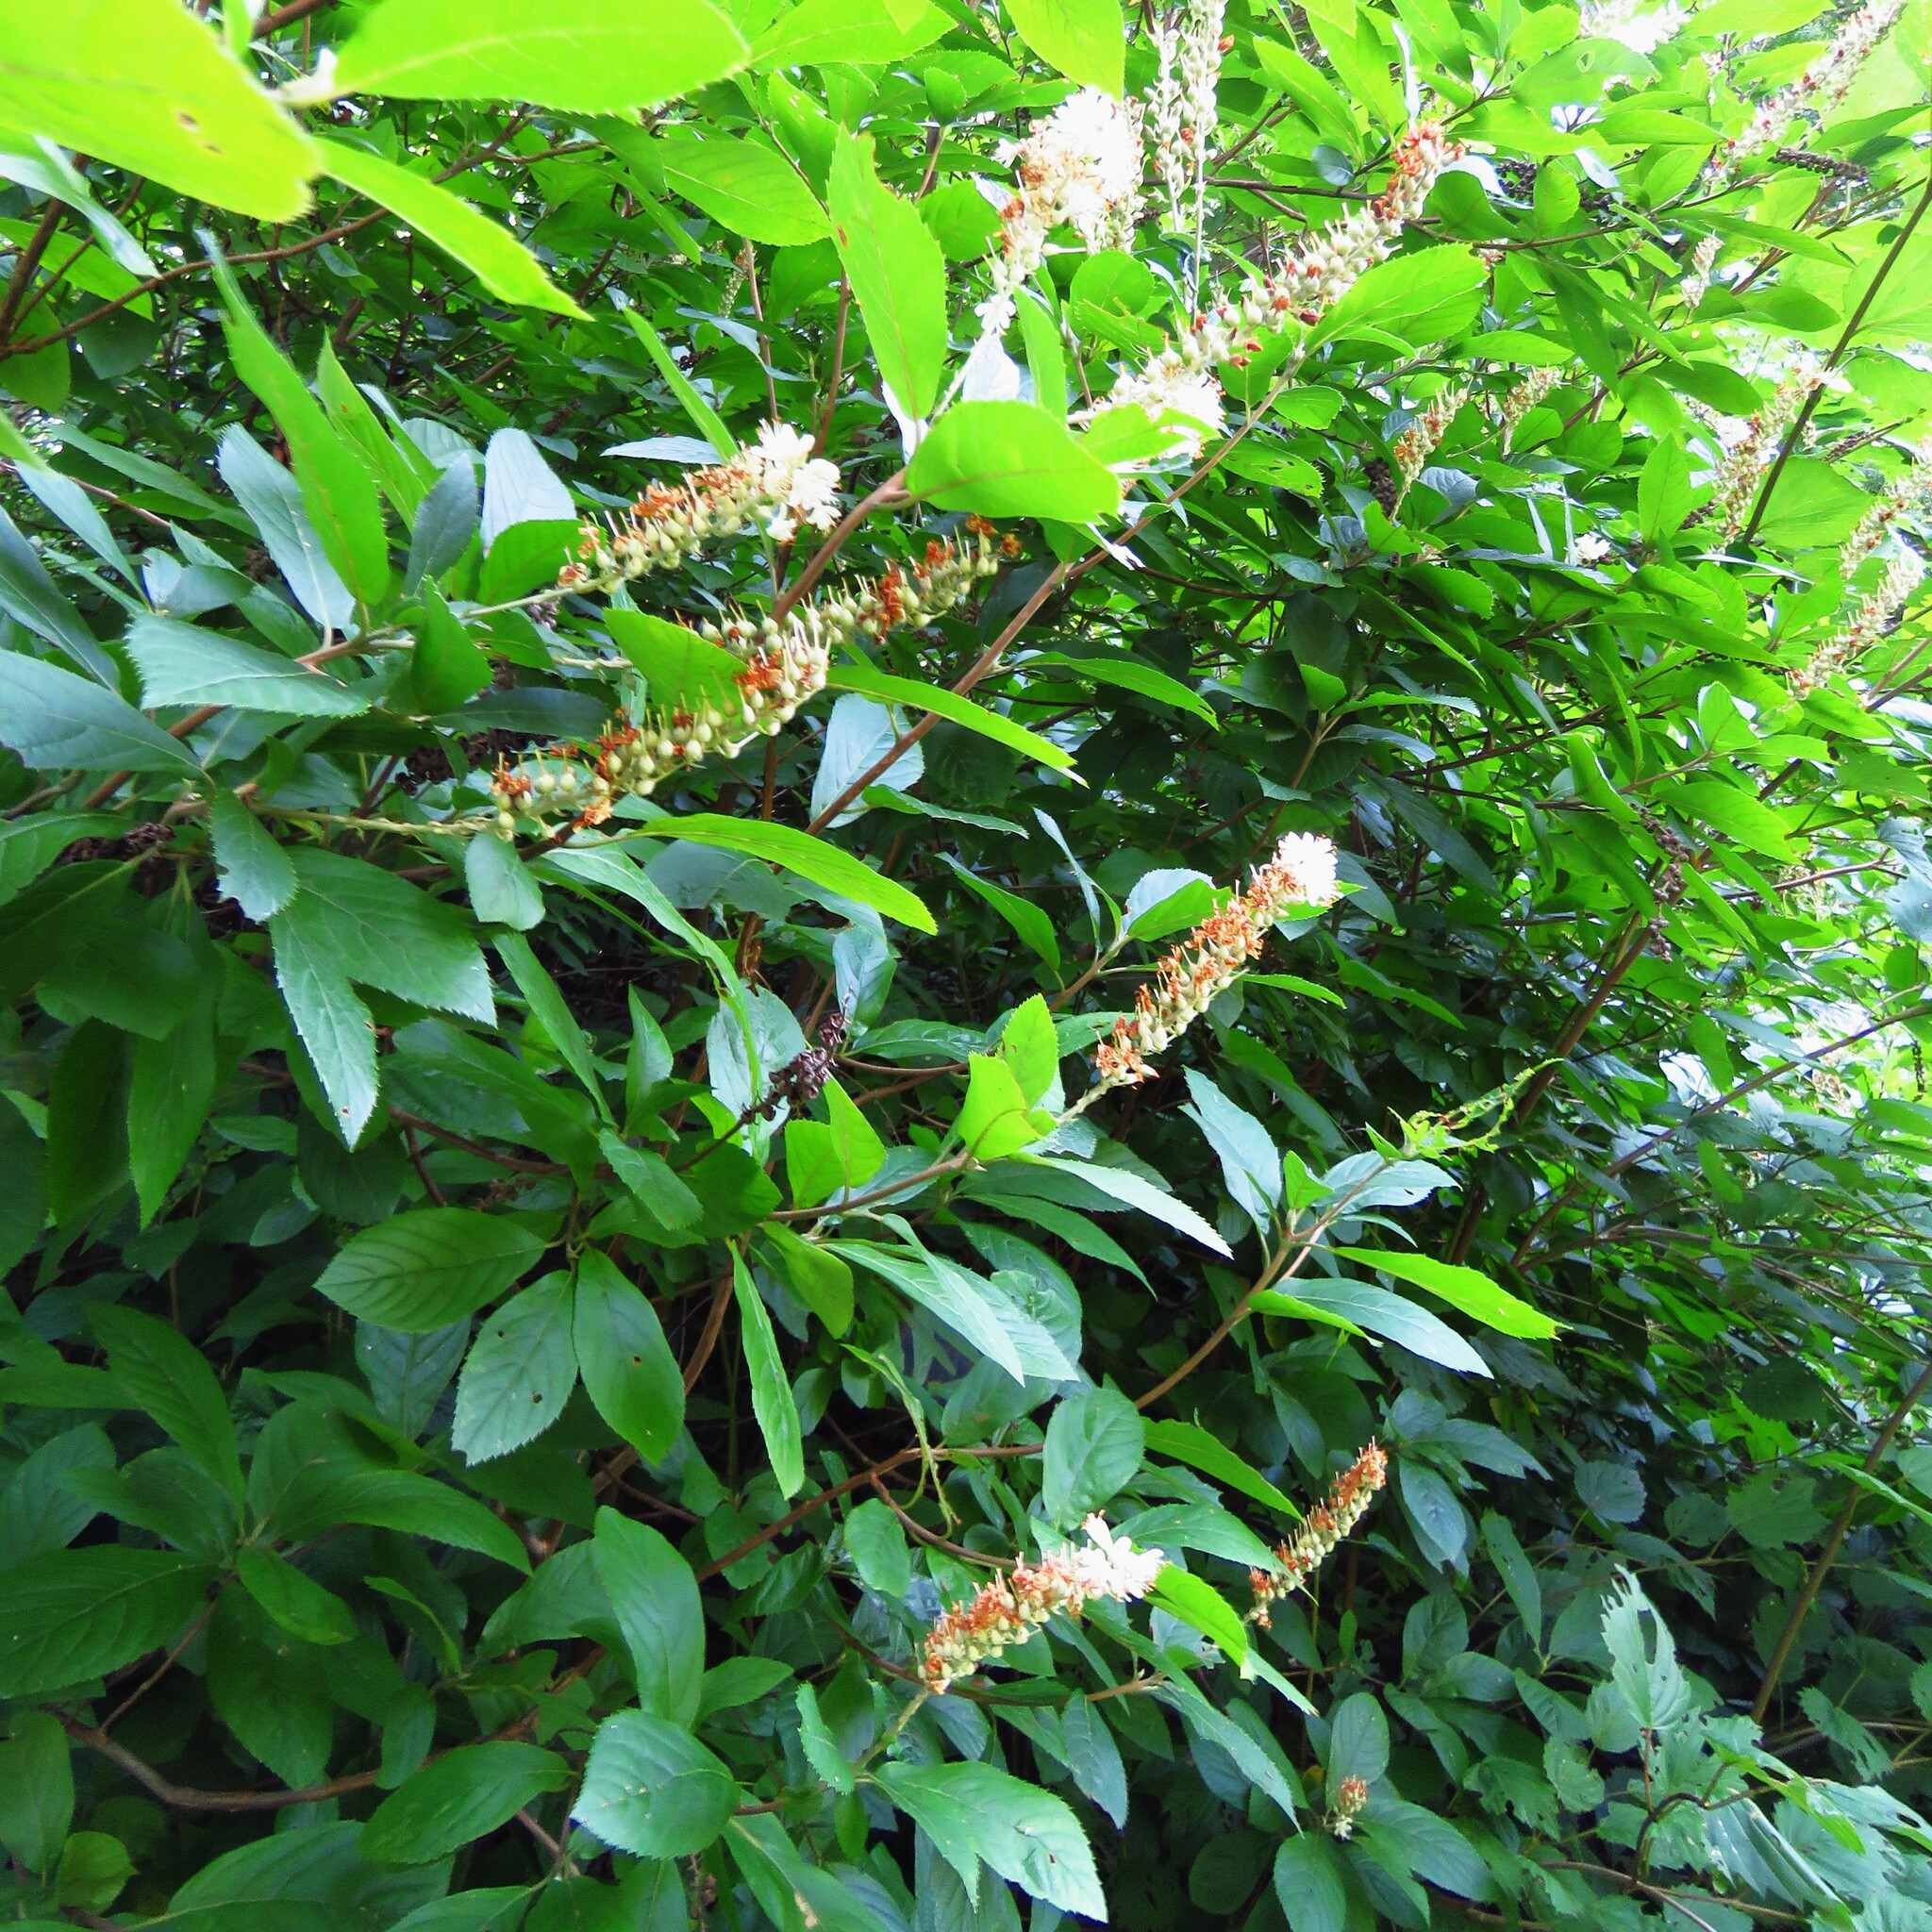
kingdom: Plantae
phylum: Tracheophyta
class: Magnoliopsida
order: Ericales
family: Clethraceae
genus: Clethra
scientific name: Clethra alnifolia
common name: Sweet pepperbush
